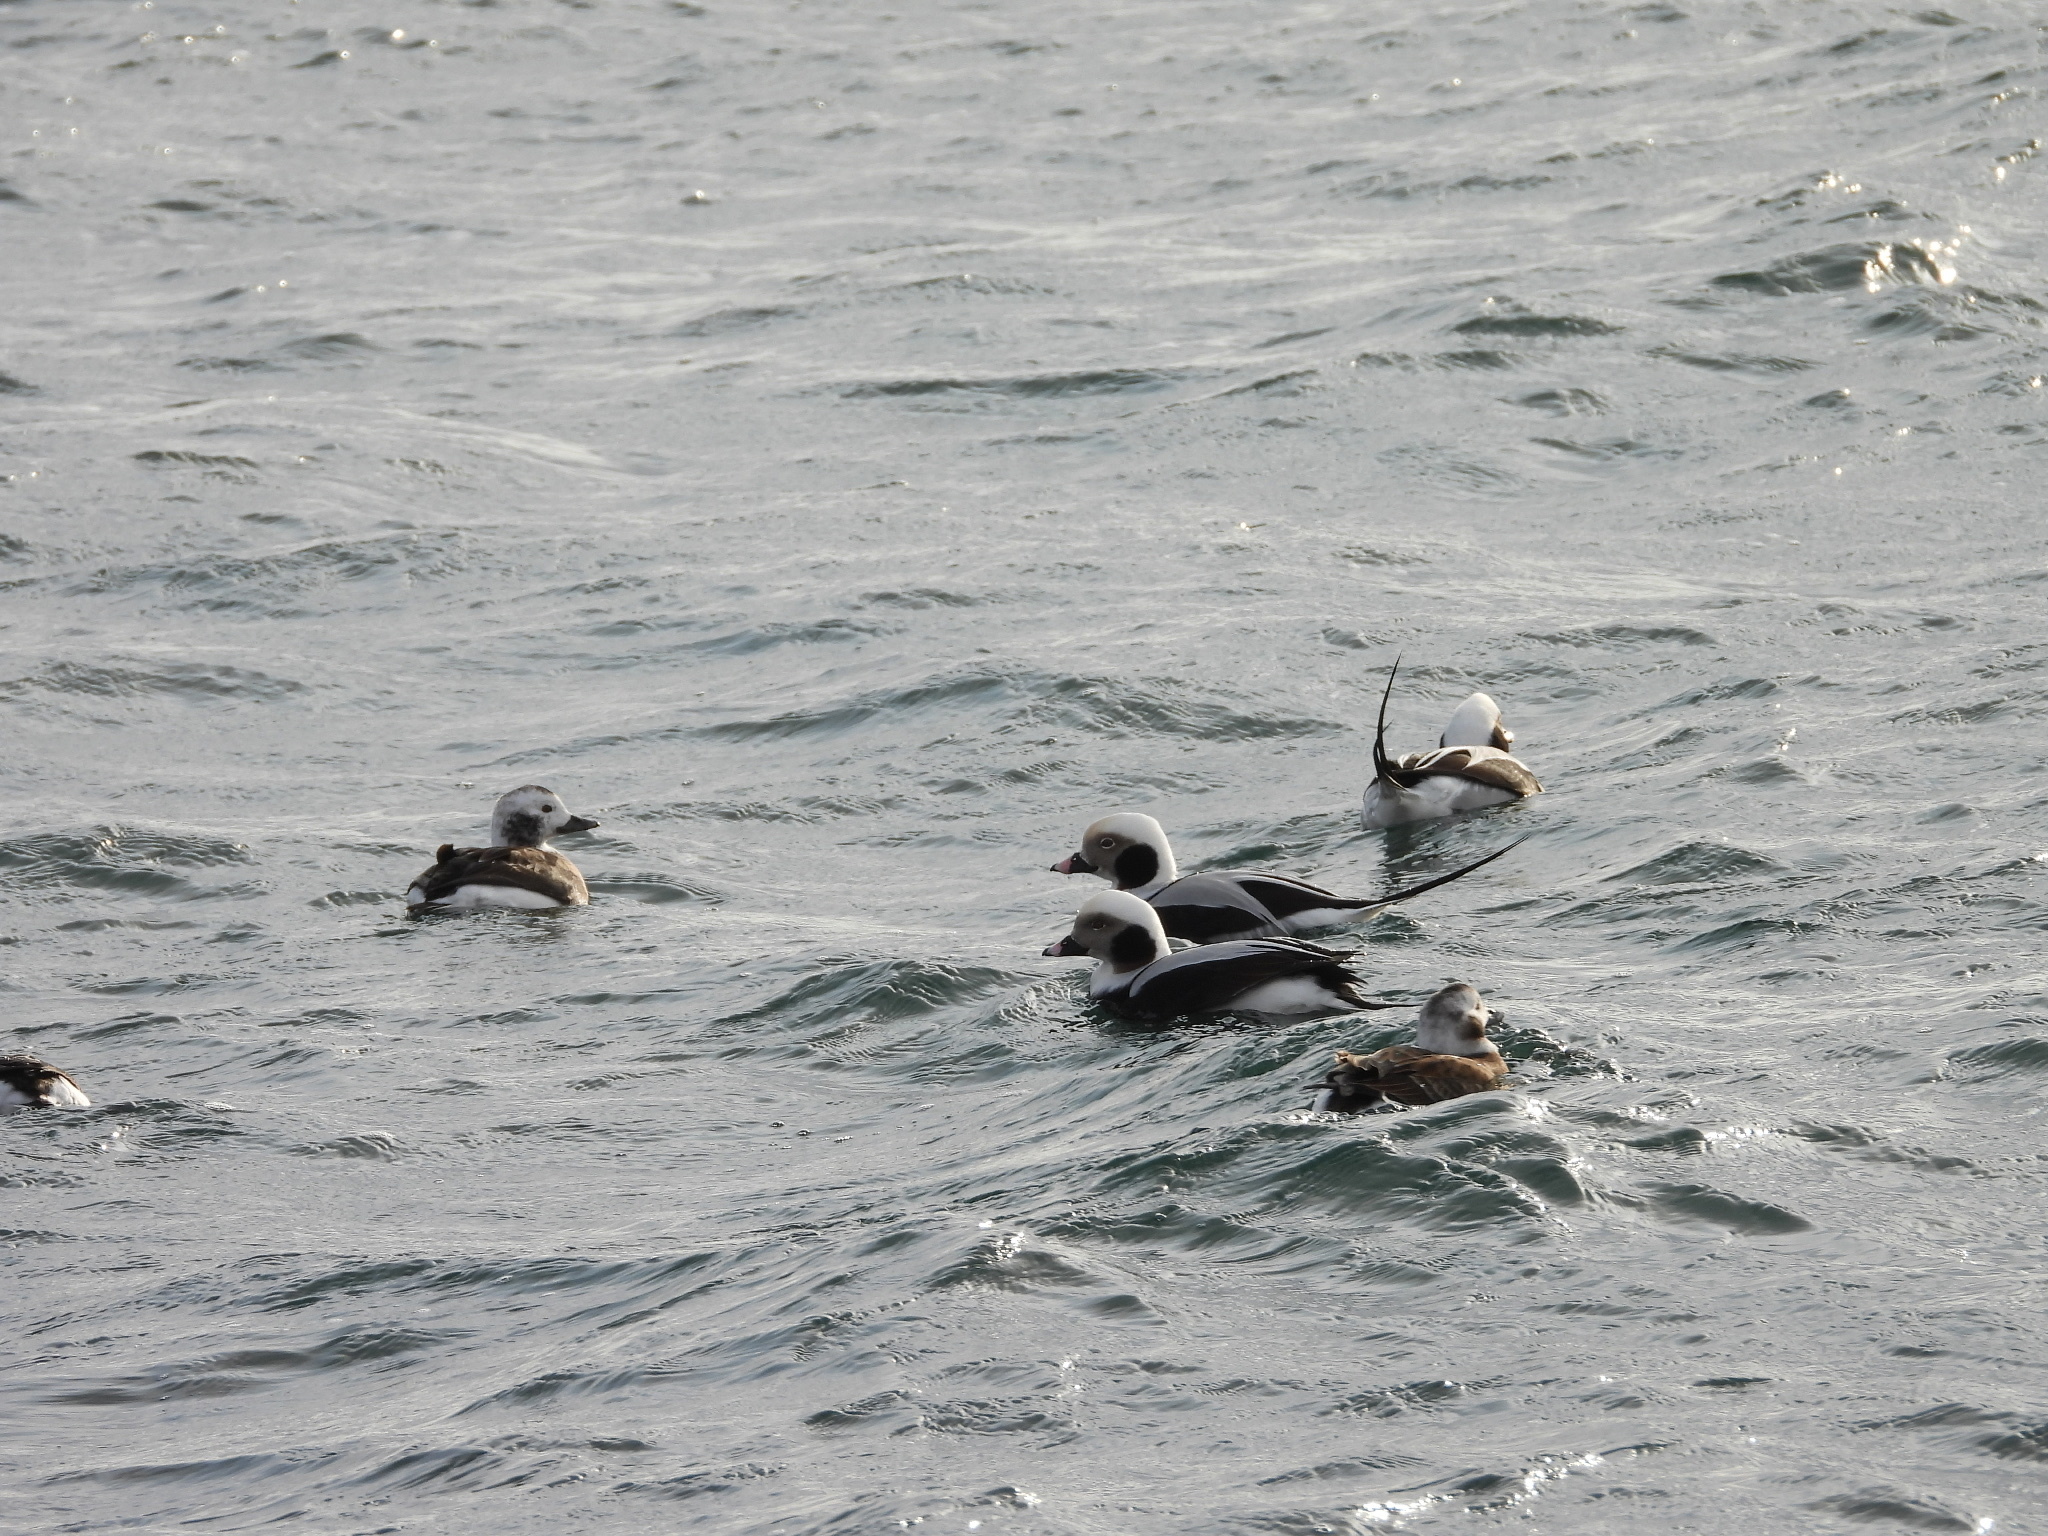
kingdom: Animalia
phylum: Chordata
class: Aves
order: Anseriformes
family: Anatidae
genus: Clangula
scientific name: Clangula hyemalis
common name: Long-tailed duck
